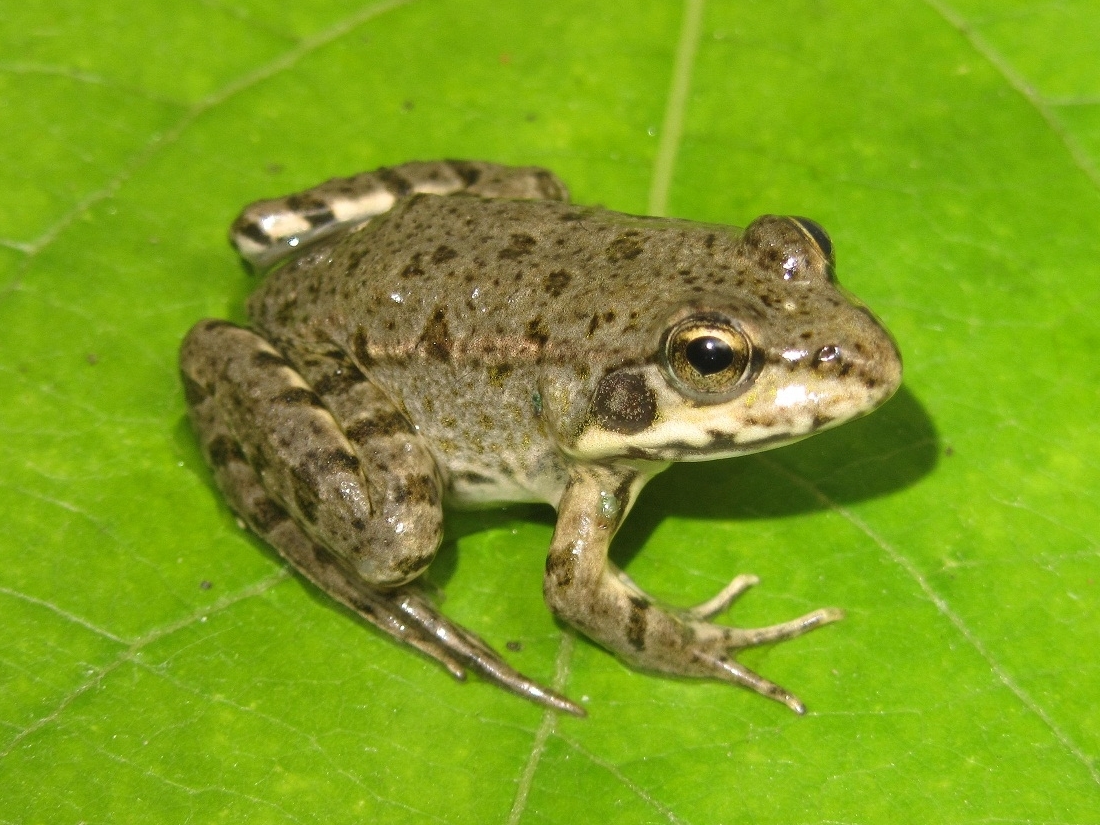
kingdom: Animalia
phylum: Chordata
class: Amphibia
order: Anura
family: Ranidae
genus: Pelophylax
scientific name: Pelophylax ridibundus
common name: Marsh frog
